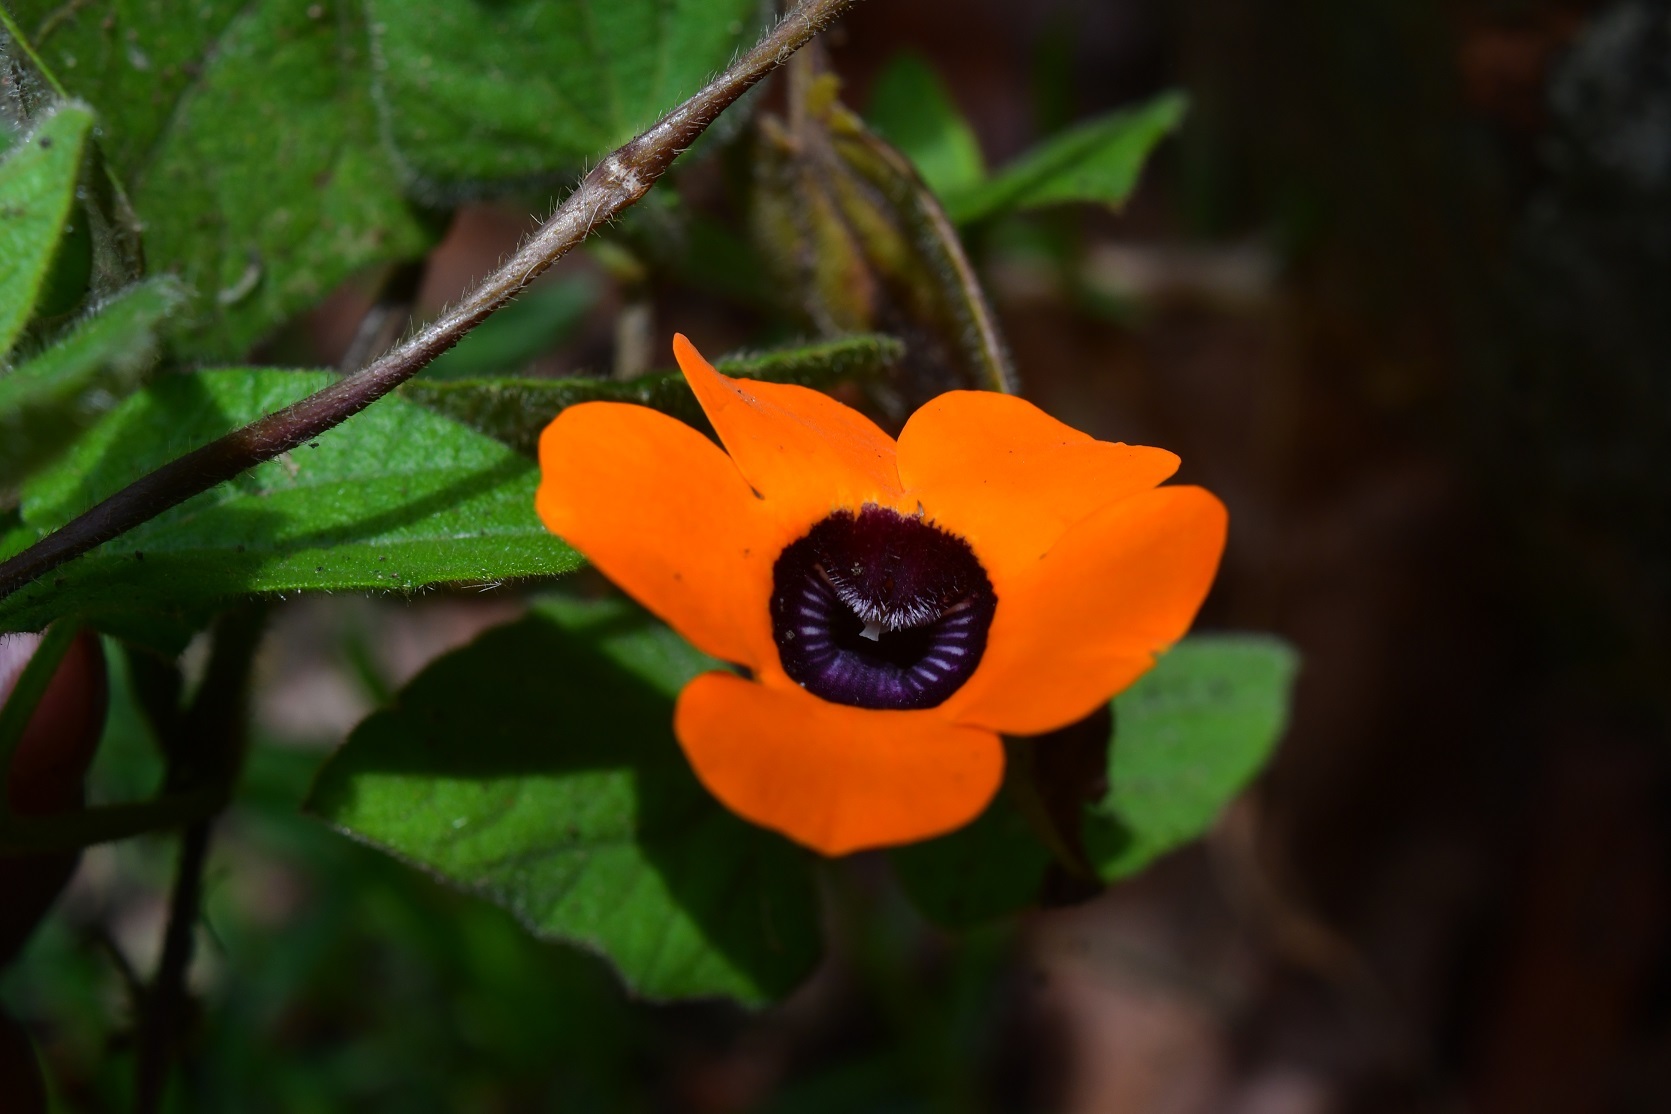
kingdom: Plantae
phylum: Tracheophyta
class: Magnoliopsida
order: Lamiales
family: Acanthaceae
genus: Thunbergia
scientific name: Thunbergia alata
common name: Blackeyed susan vine
